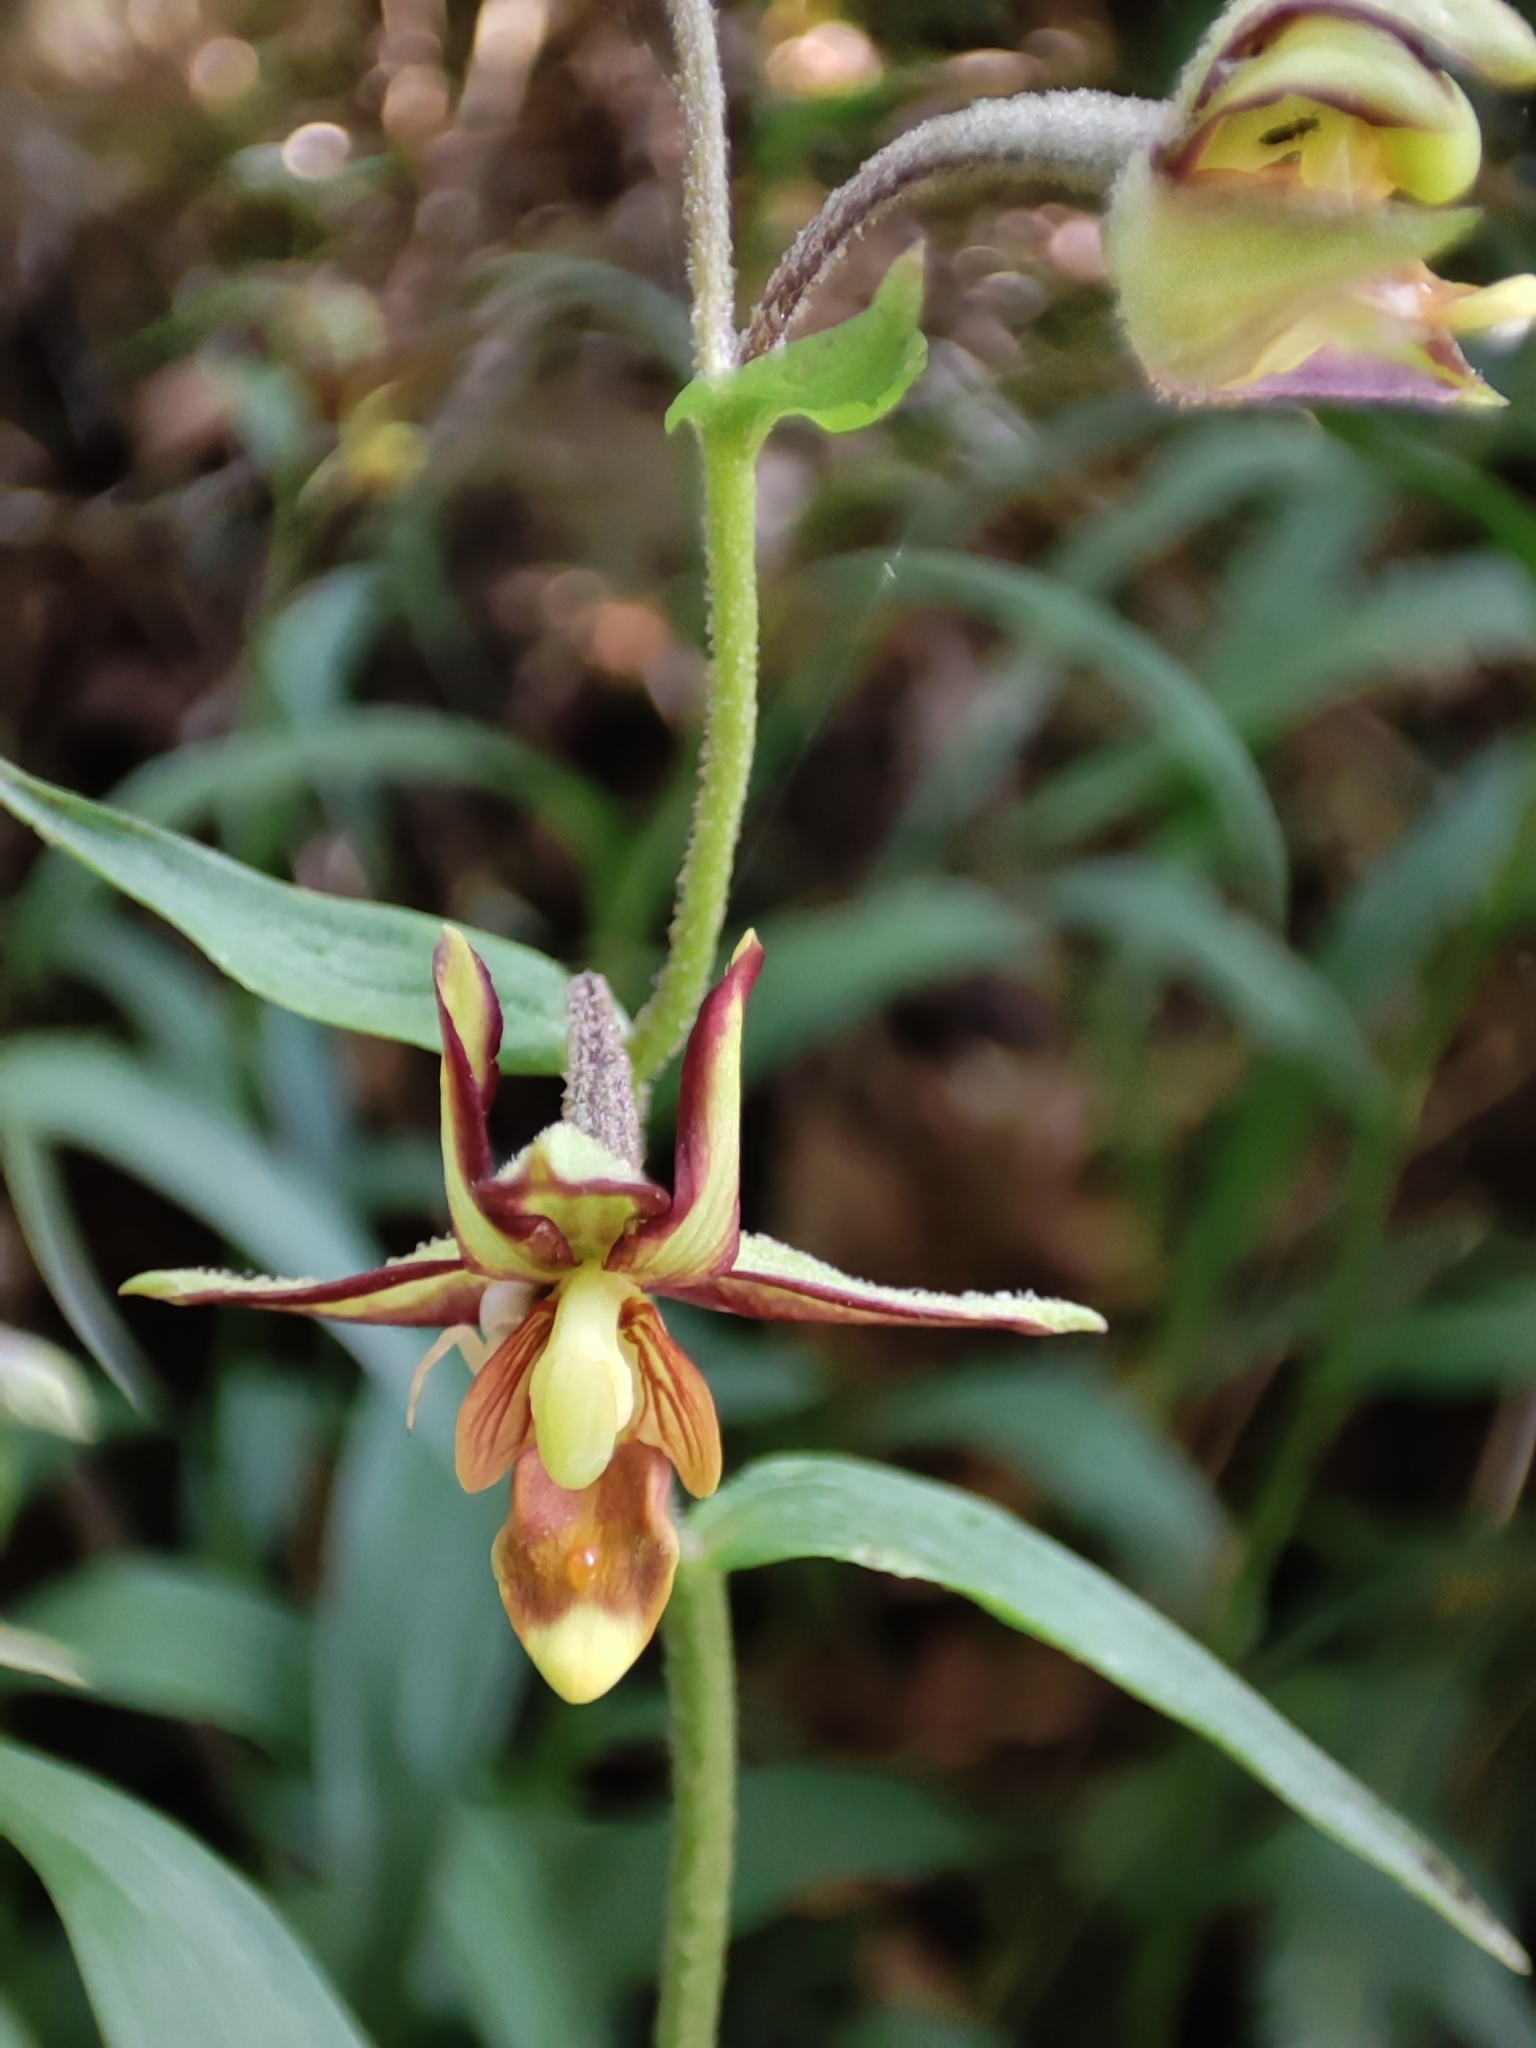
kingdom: Plantae
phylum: Tracheophyta
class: Liliopsida
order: Asparagales
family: Orchidaceae
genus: Epipactis
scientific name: Epipactis flava
